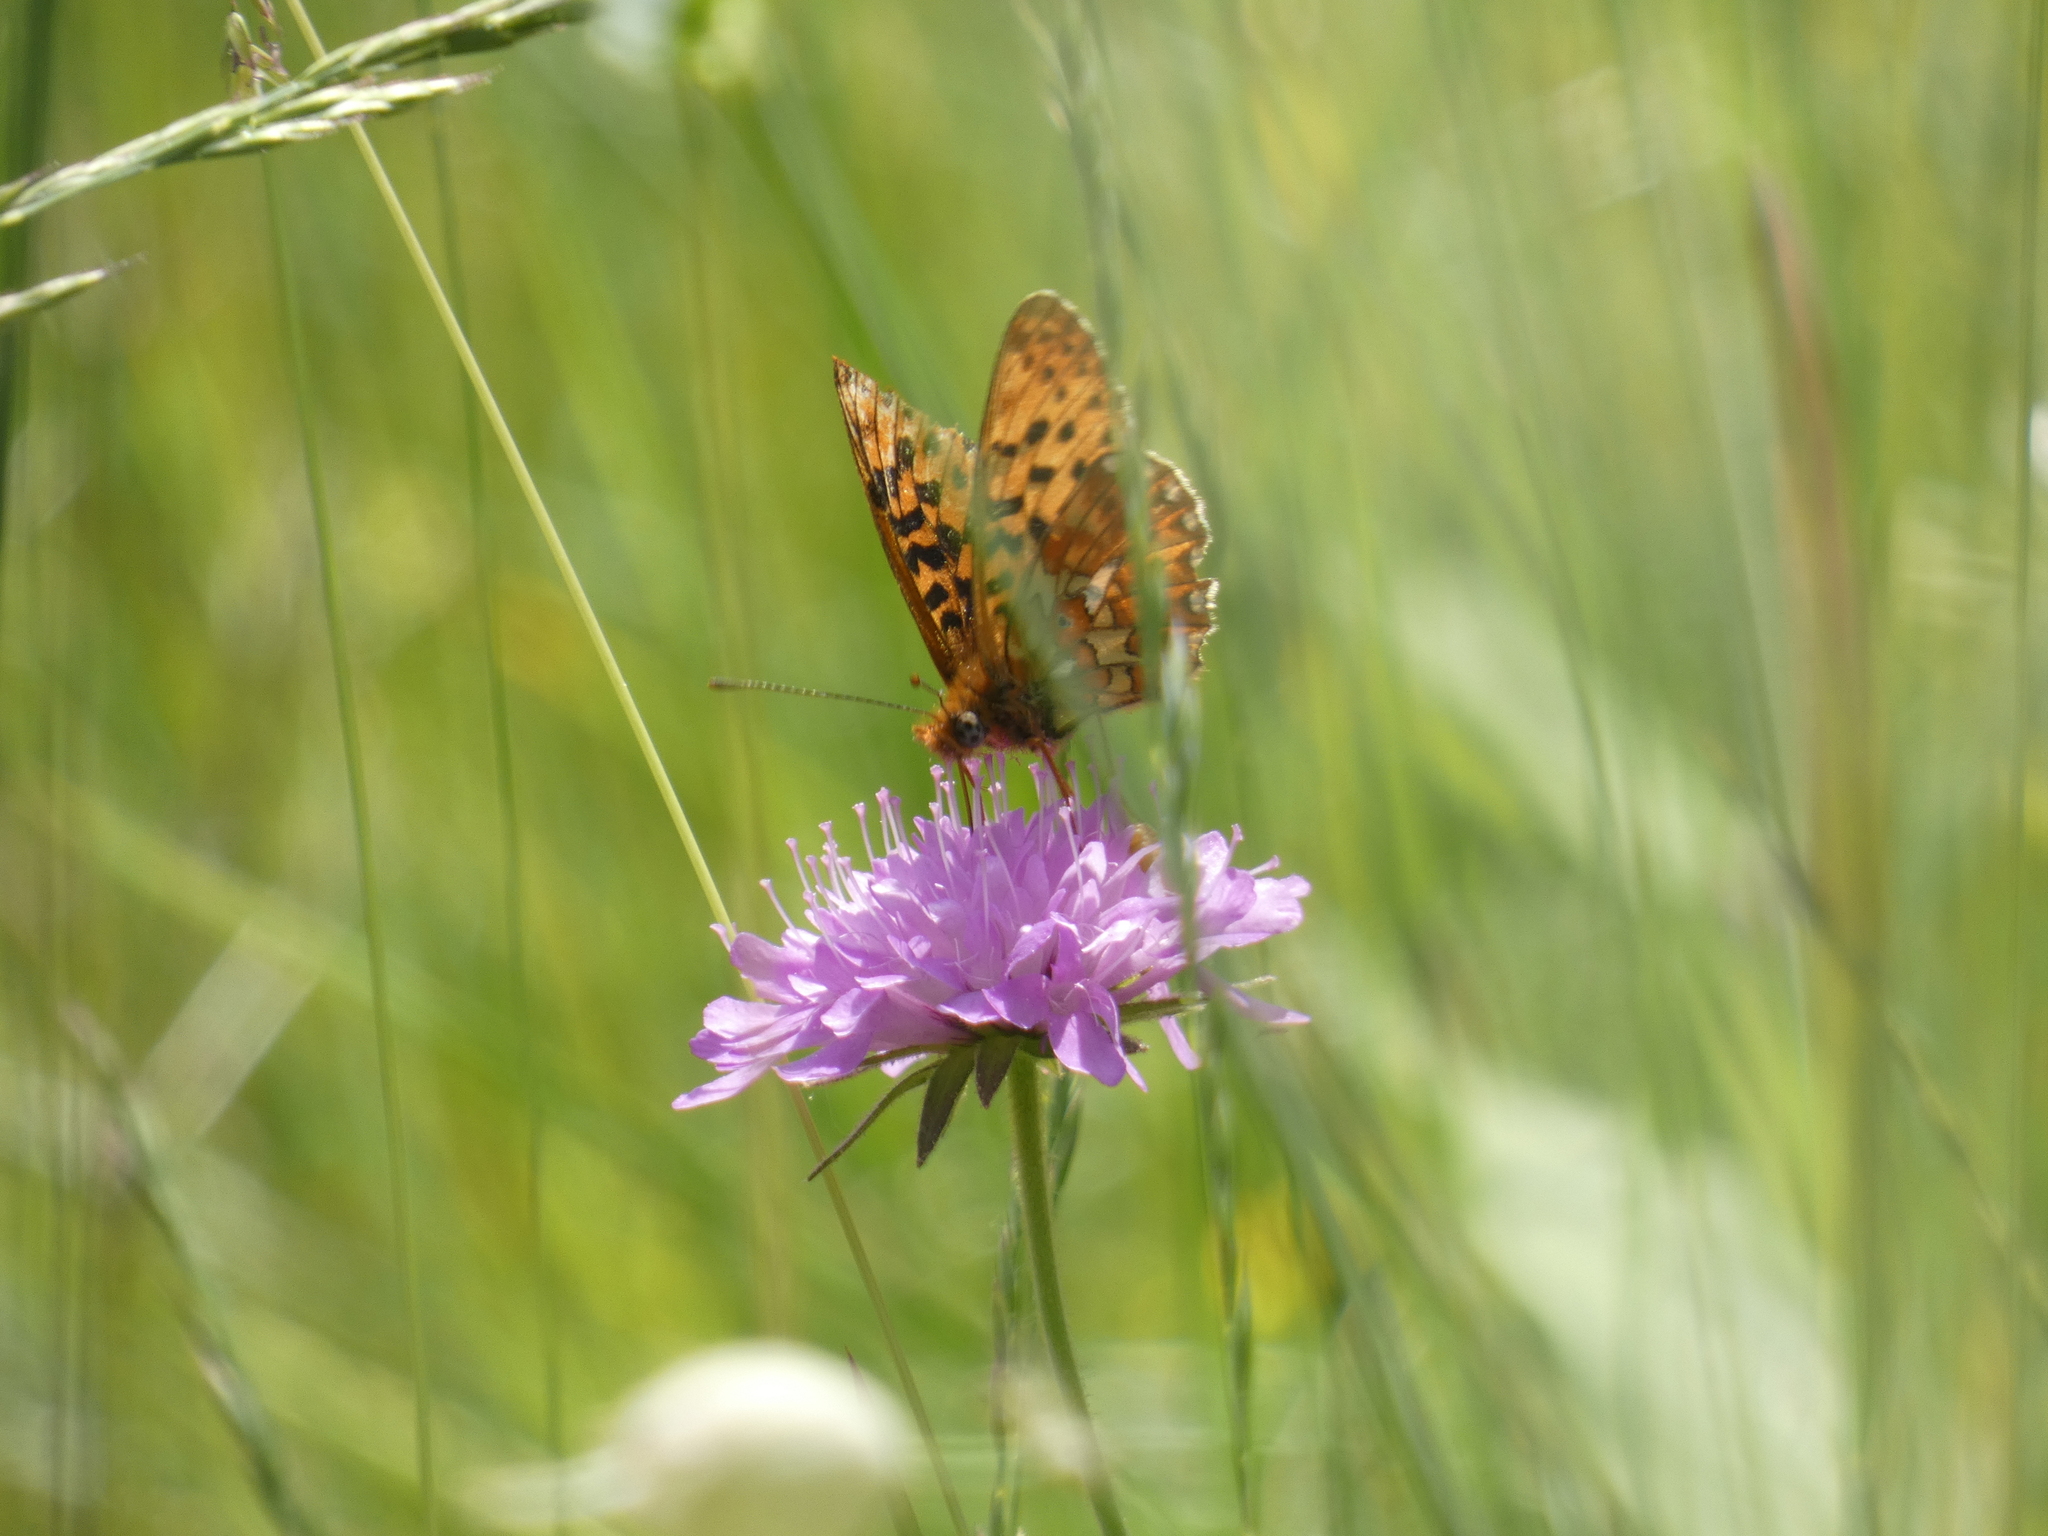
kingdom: Animalia
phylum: Arthropoda
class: Insecta
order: Lepidoptera
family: Nymphalidae
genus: Clossiana
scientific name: Clossiana euphrosyne
